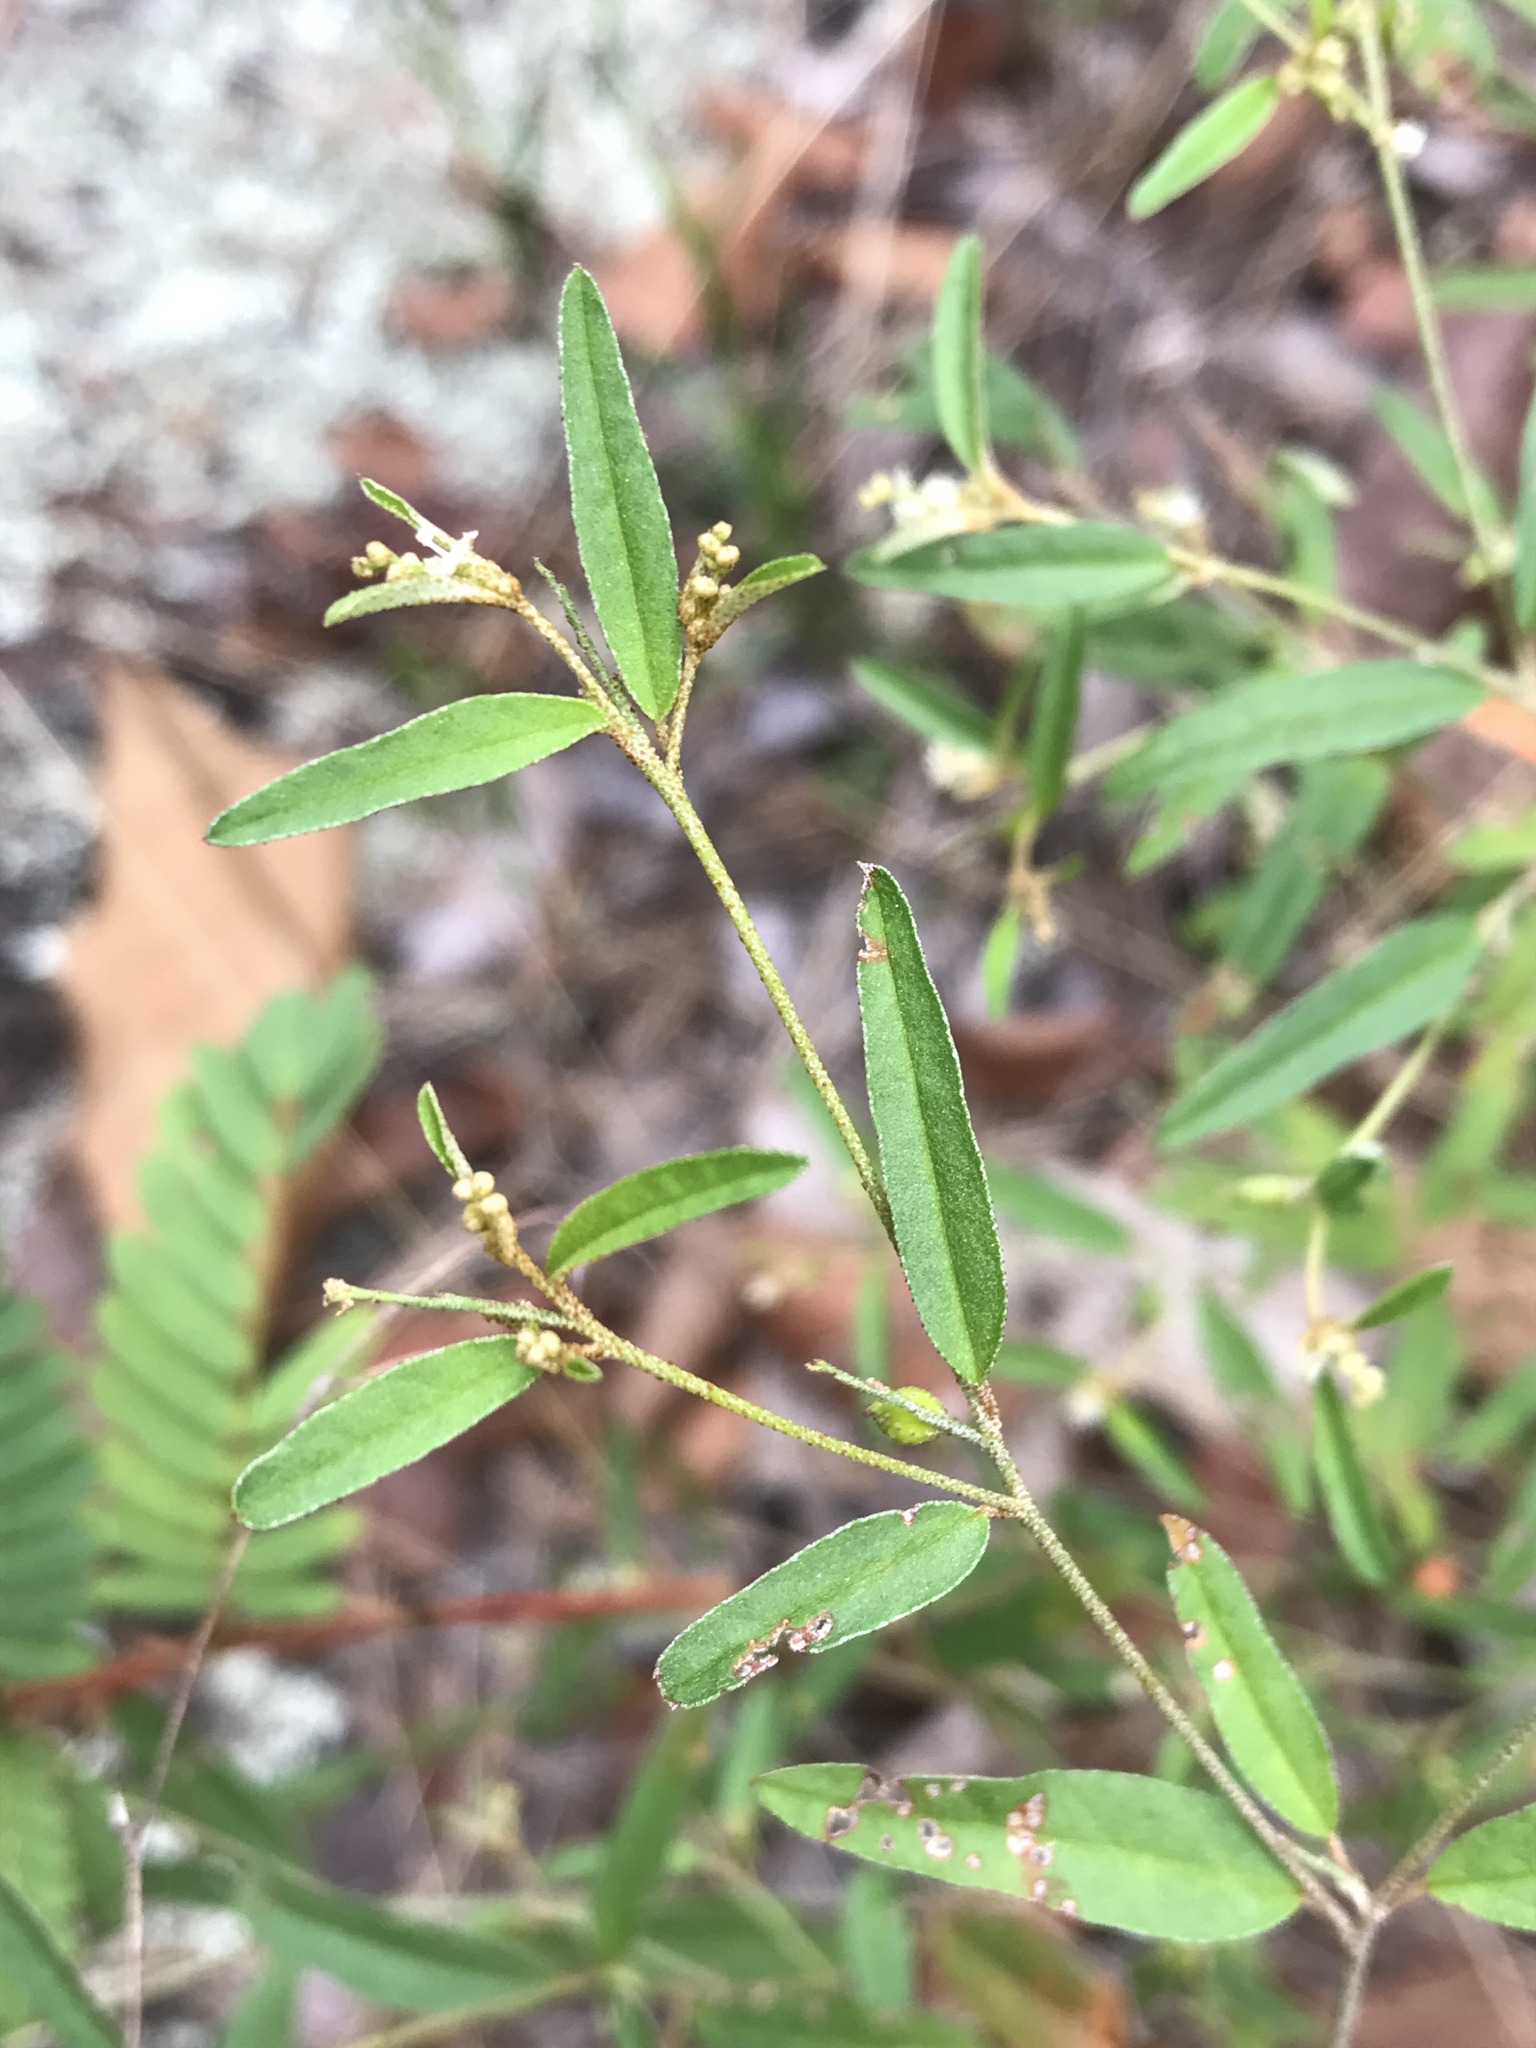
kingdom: Plantae
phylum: Tracheophyta
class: Magnoliopsida
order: Malpighiales
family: Euphorbiaceae
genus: Croton
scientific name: Croton michauxii
